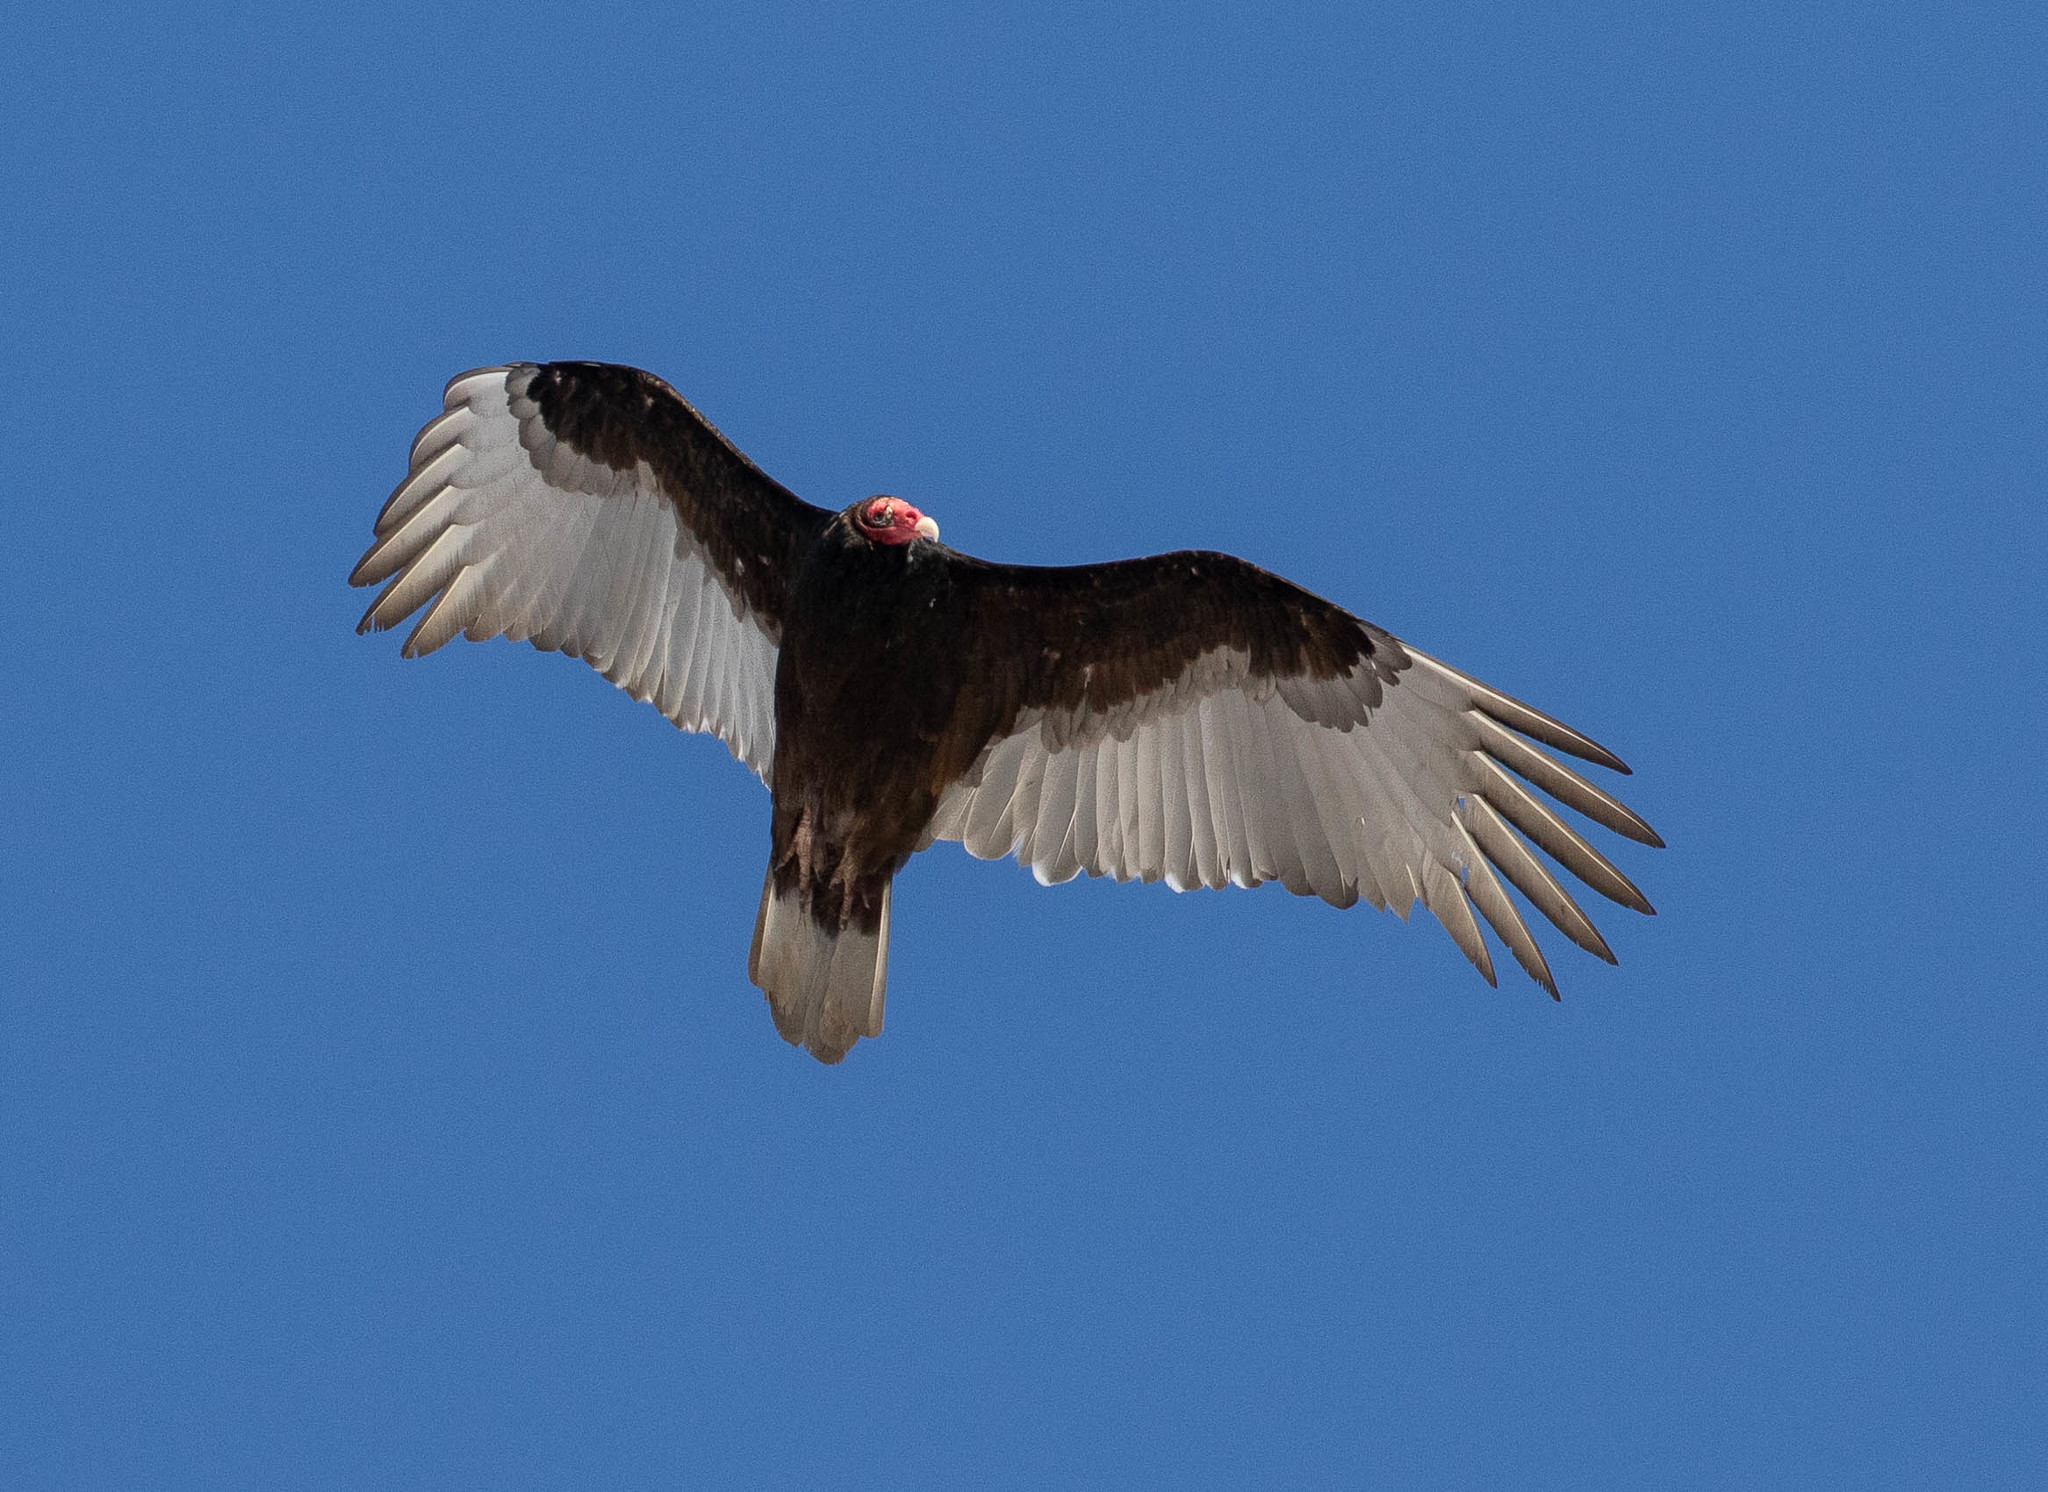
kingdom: Animalia
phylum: Chordata
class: Aves
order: Accipitriformes
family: Cathartidae
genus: Cathartes
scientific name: Cathartes aura
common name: Turkey vulture
